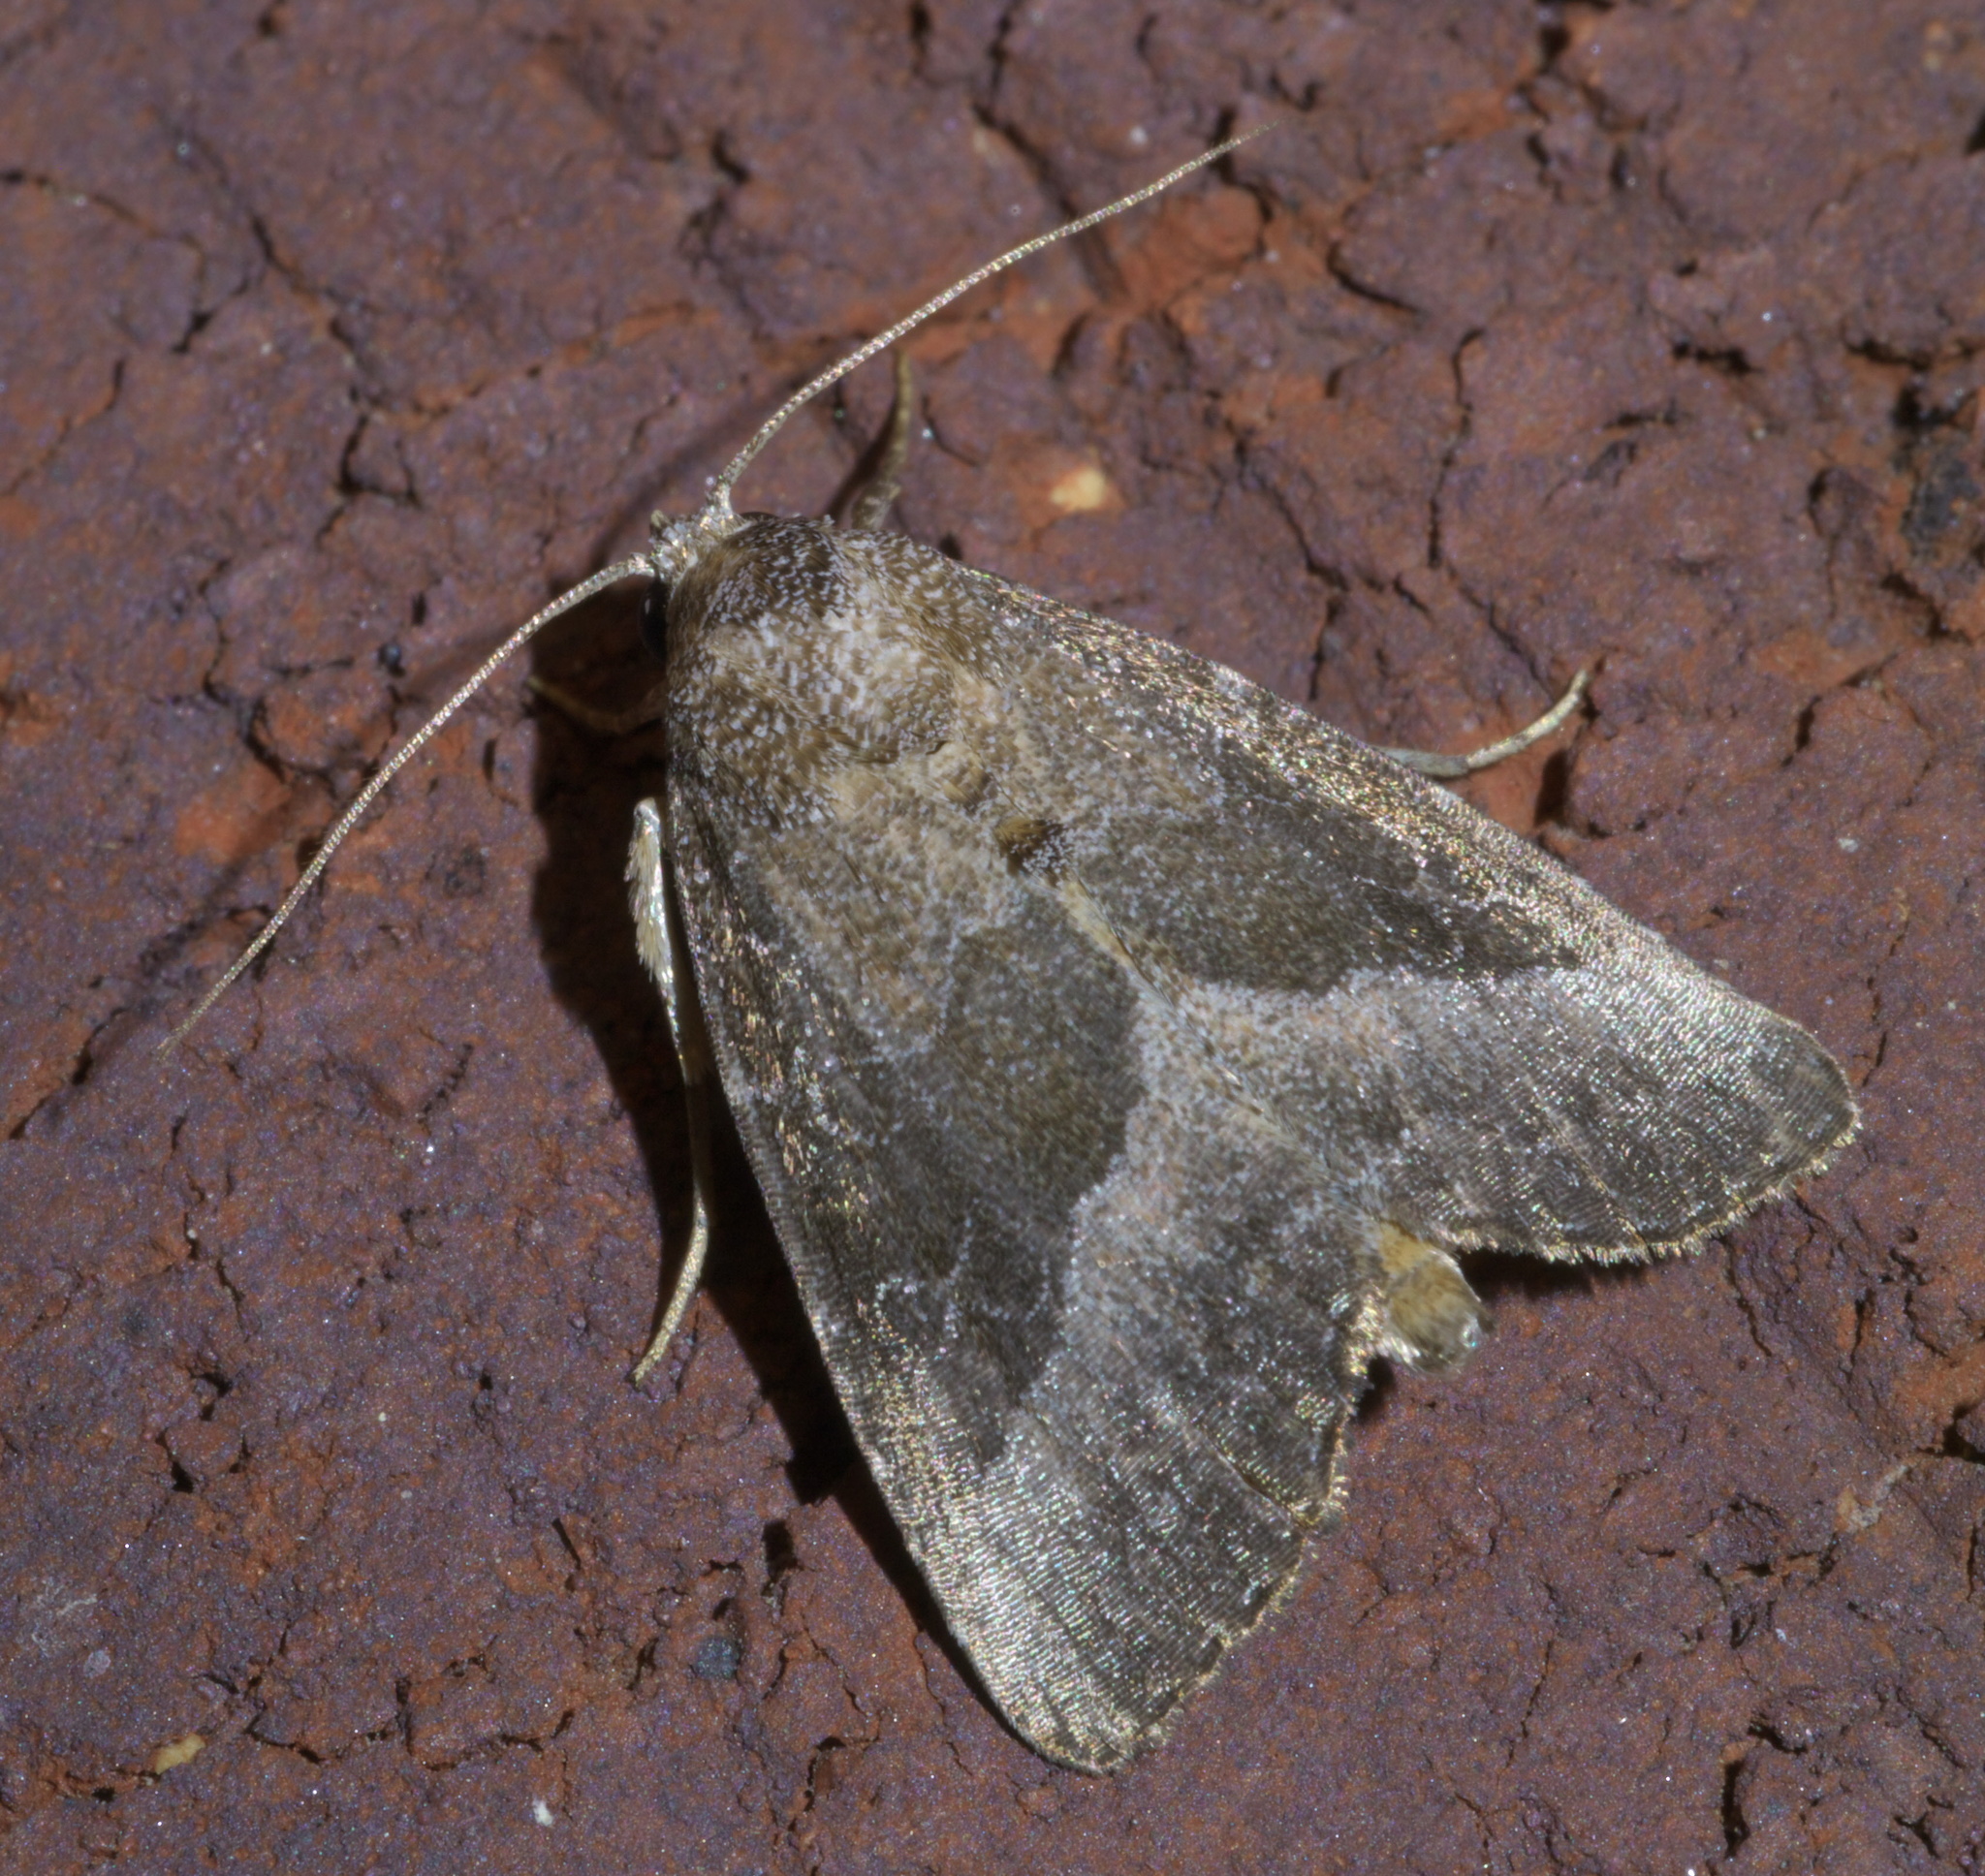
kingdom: Animalia
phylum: Arthropoda
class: Insecta
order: Lepidoptera
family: Noctuidae
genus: Ogdoconta
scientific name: Ogdoconta cinereola
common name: Common pinkband
